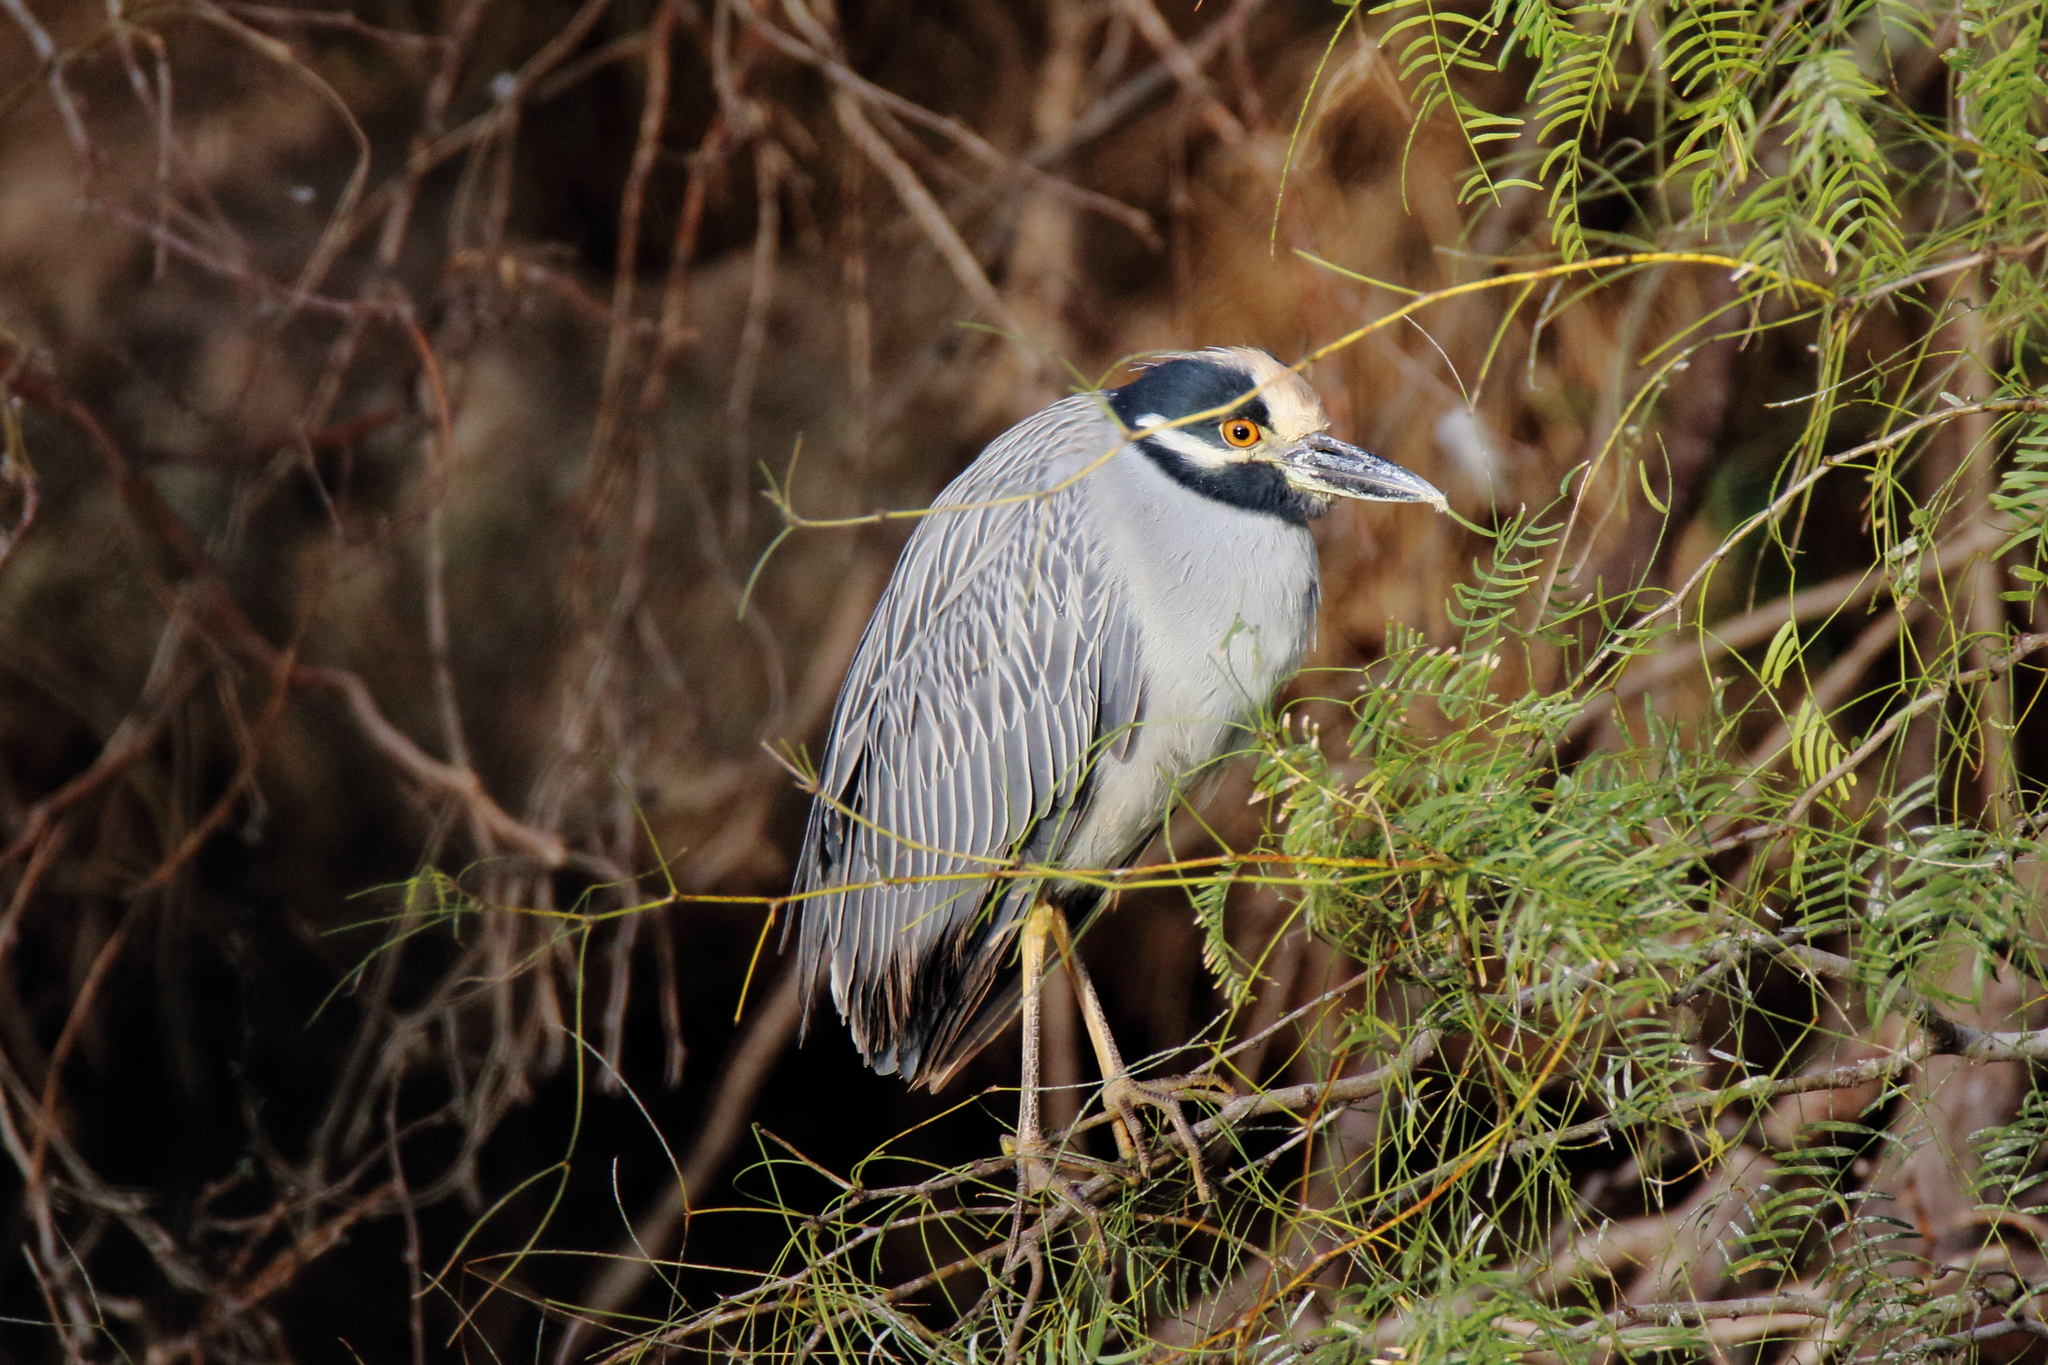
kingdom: Animalia
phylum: Chordata
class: Aves
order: Pelecaniformes
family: Ardeidae
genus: Nyctanassa
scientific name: Nyctanassa violacea
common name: Yellow-crowned night heron
